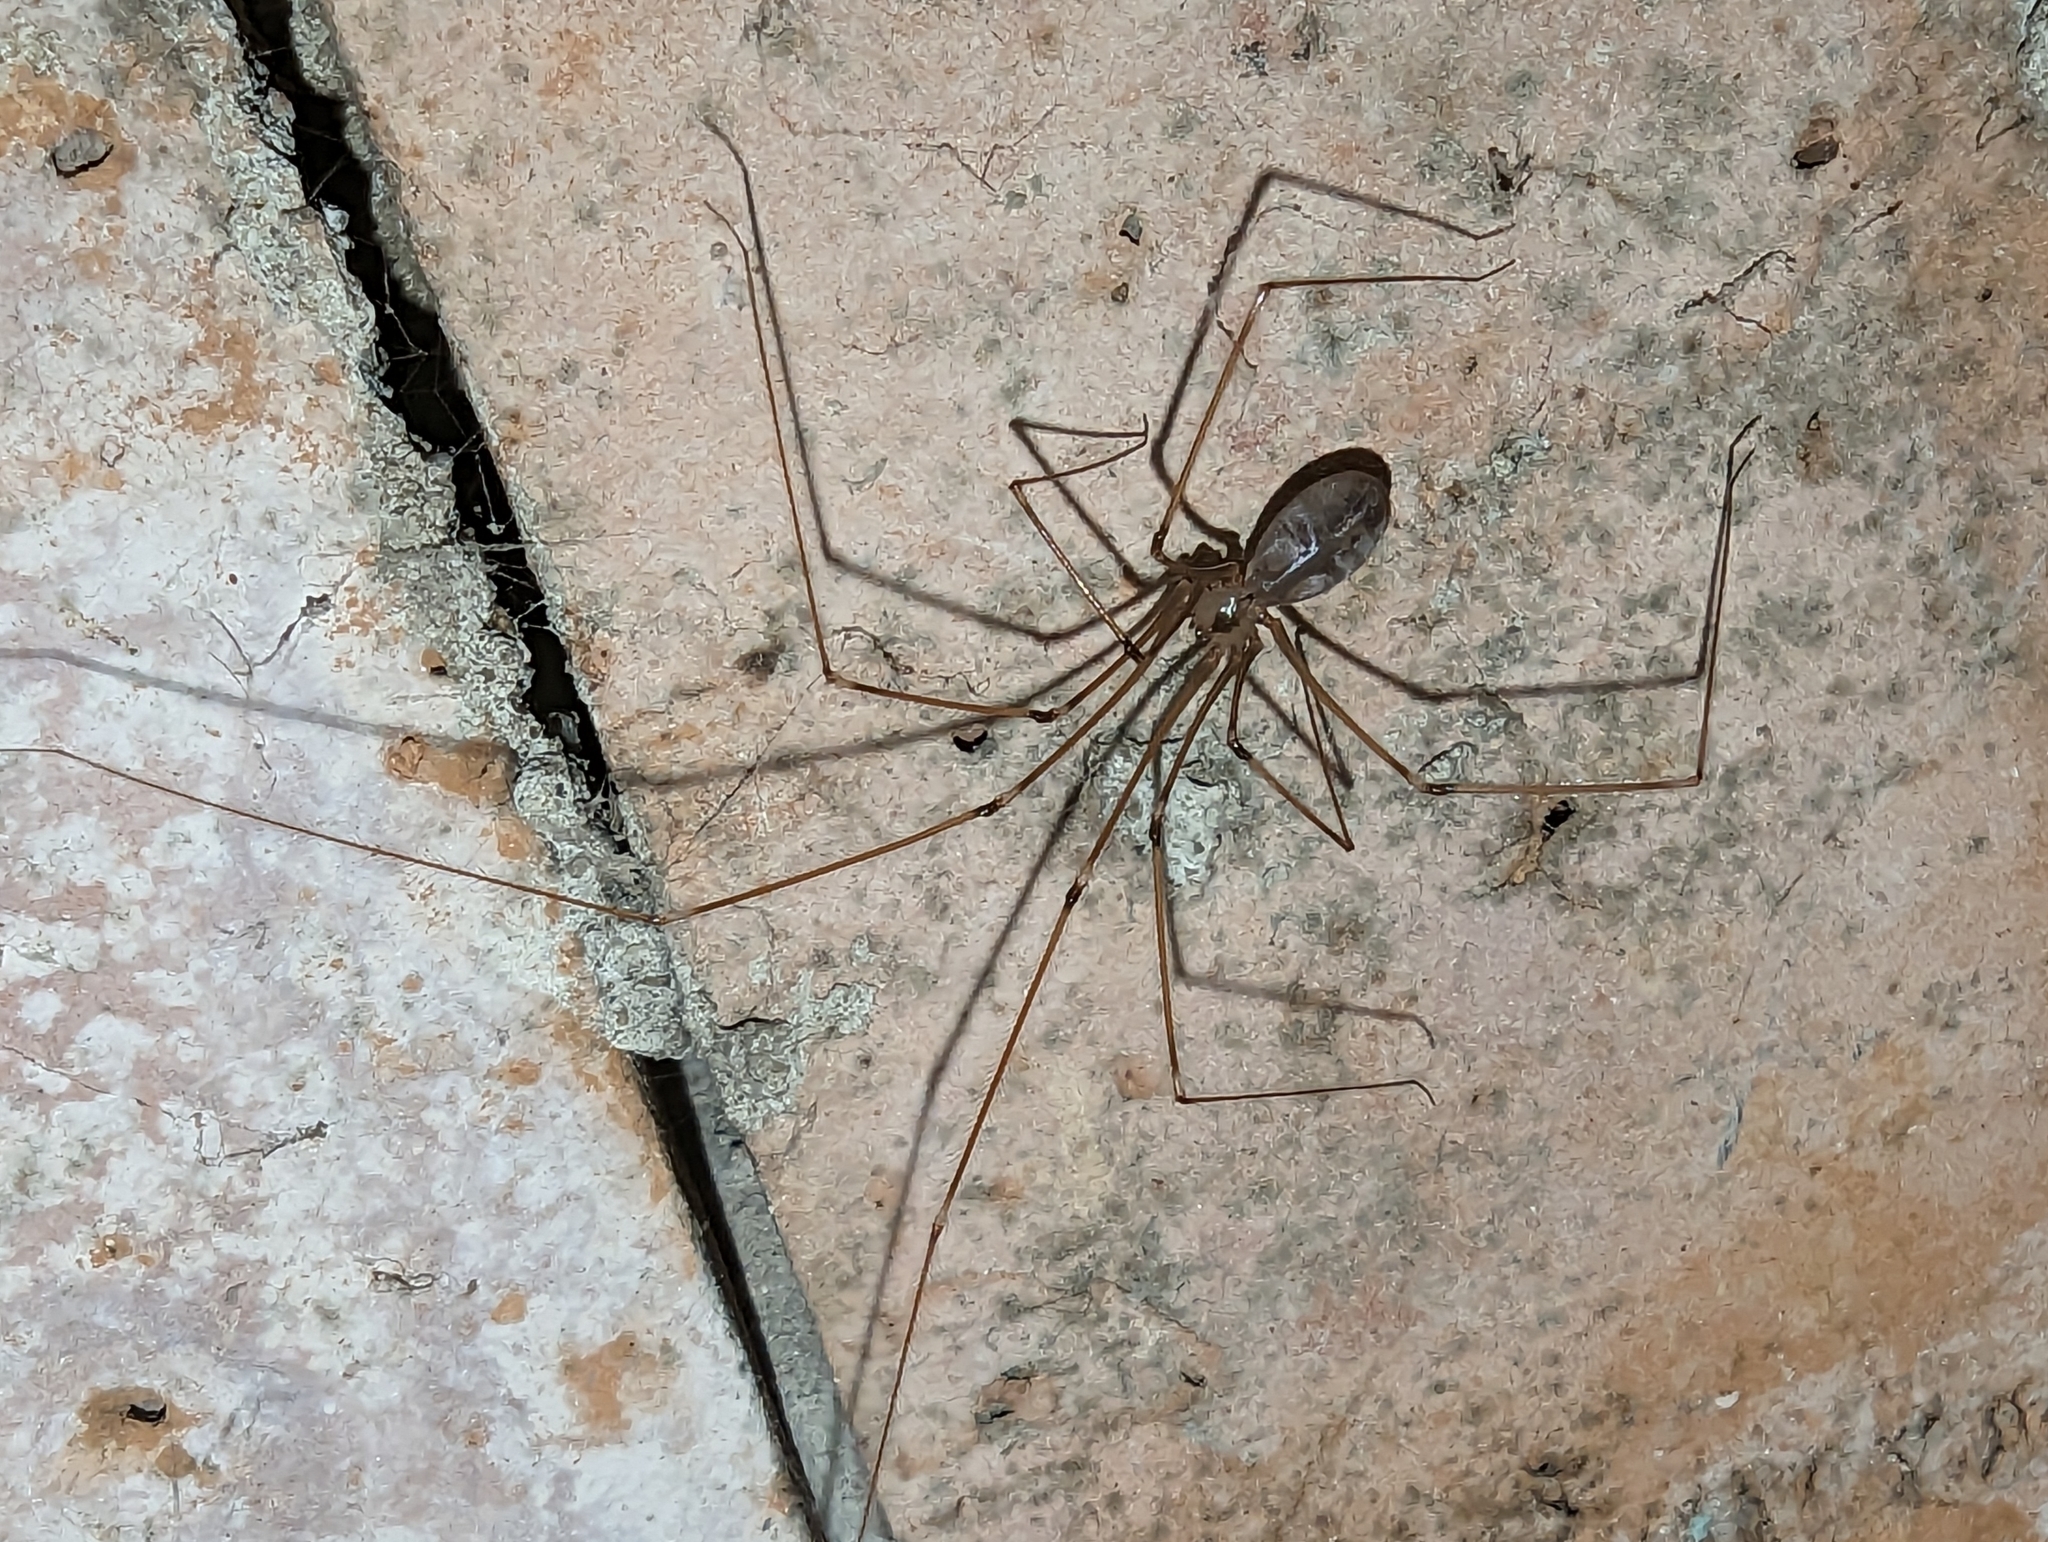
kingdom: Animalia
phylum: Arthropoda
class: Arachnida
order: Araneae
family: Pholcidae
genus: Pholcus
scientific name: Pholcus phalangioides
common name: Longbodied cellar spider
